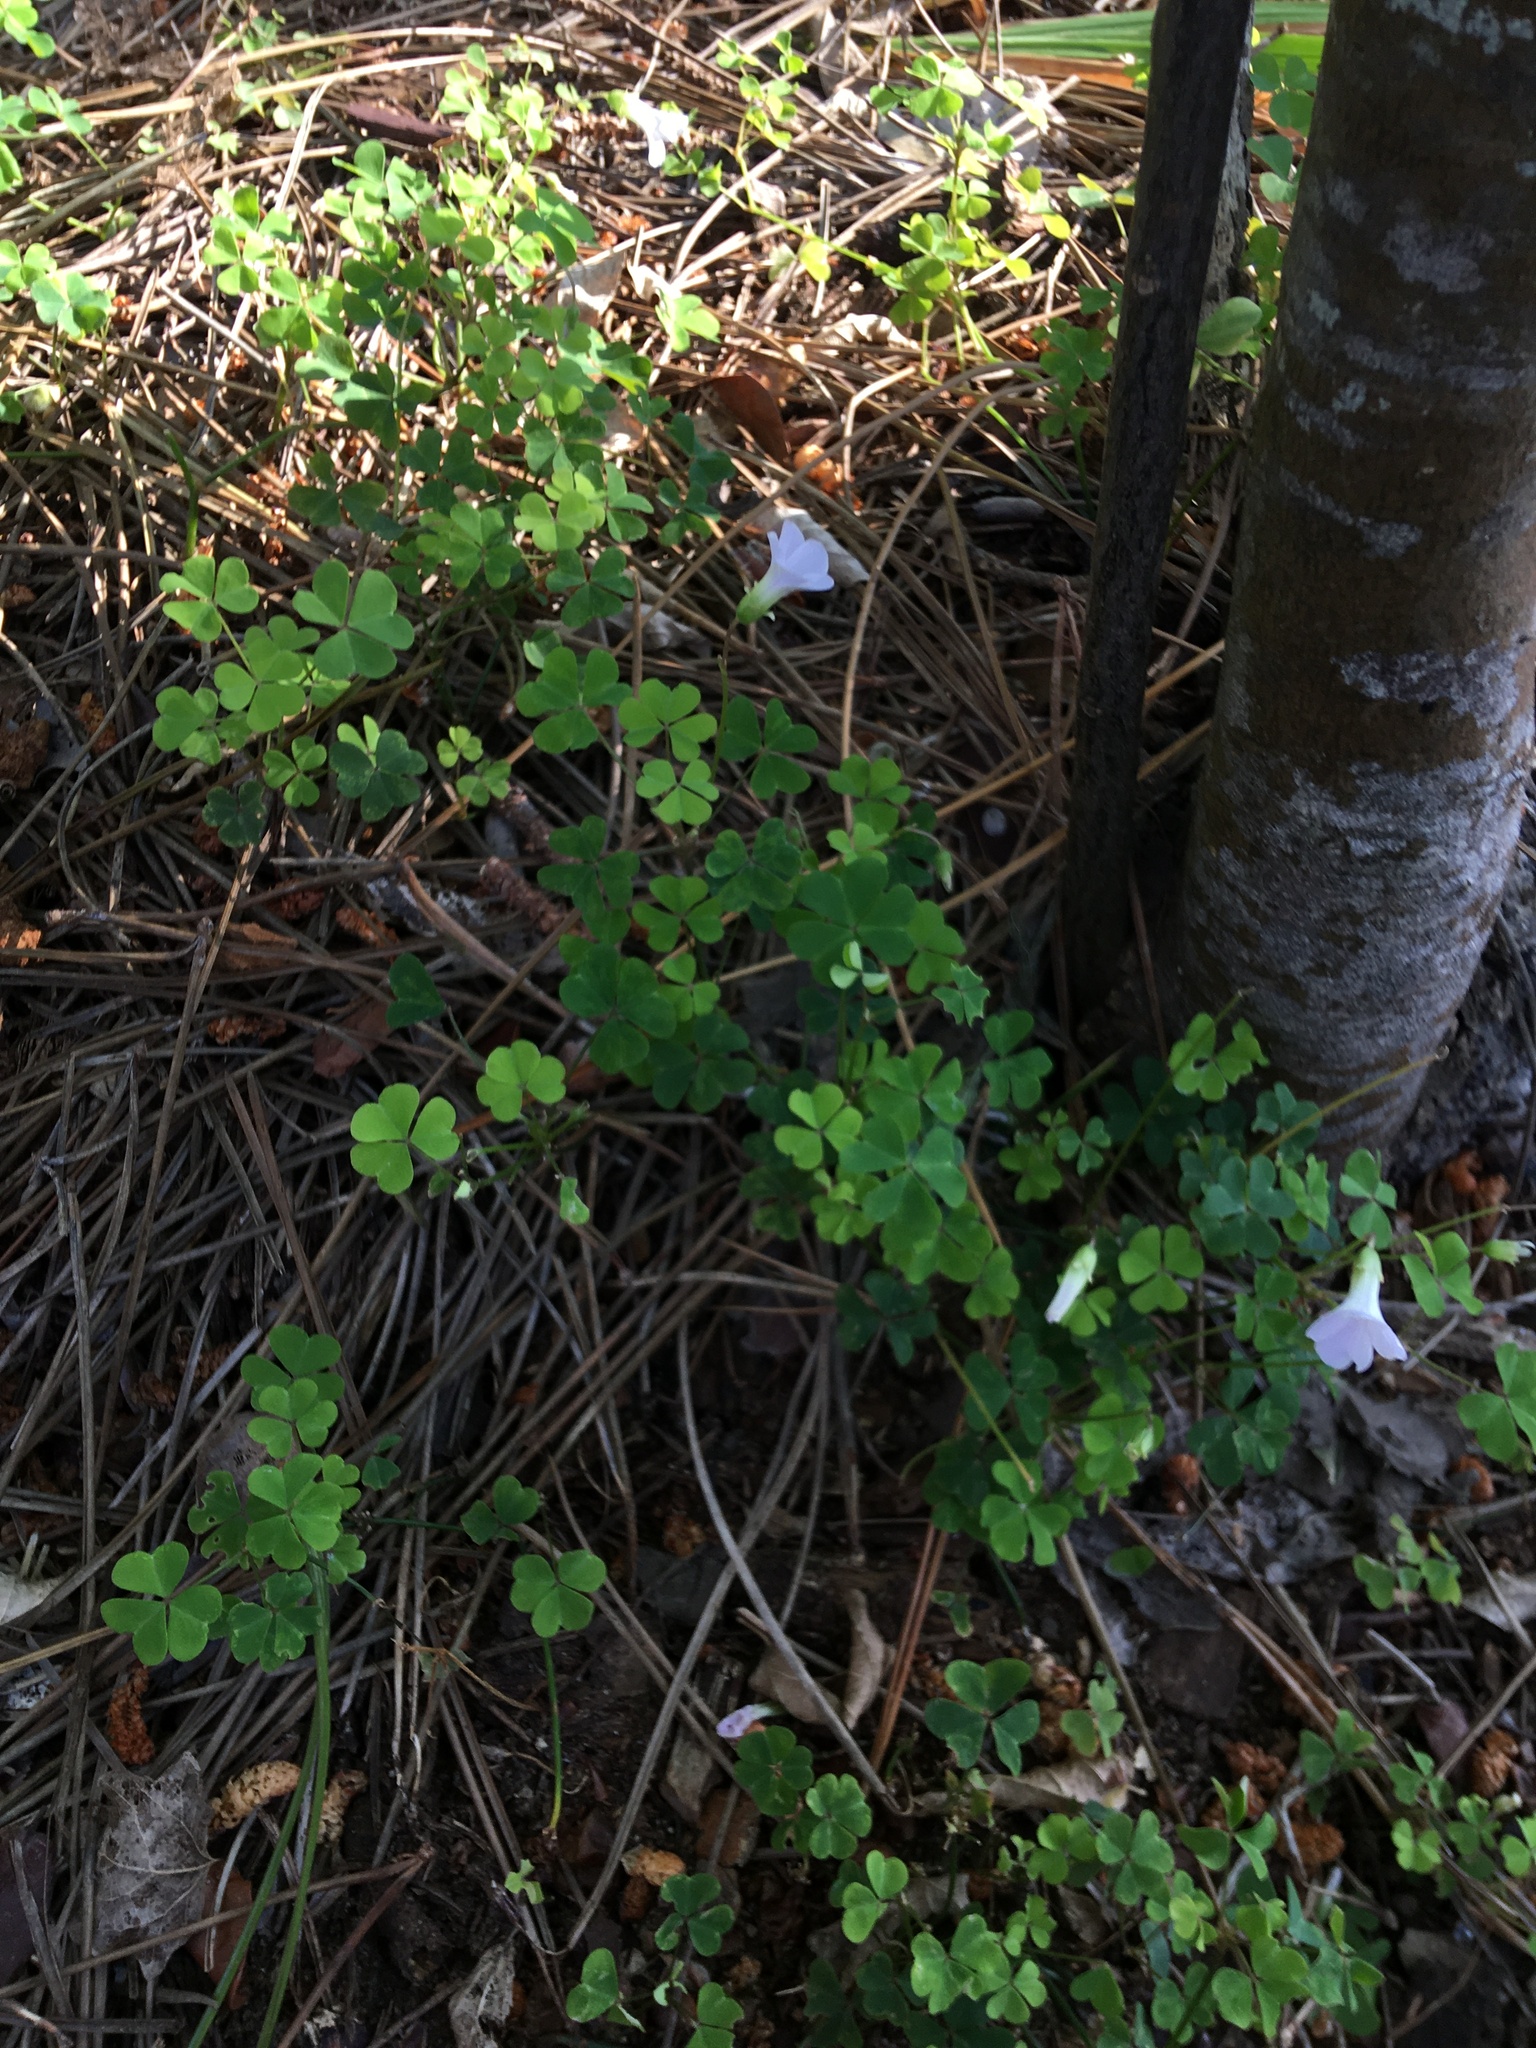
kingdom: Plantae
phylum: Tracheophyta
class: Magnoliopsida
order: Oxalidales
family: Oxalidaceae
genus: Oxalis
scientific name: Oxalis incarnata
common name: Pale pink-sorrel
